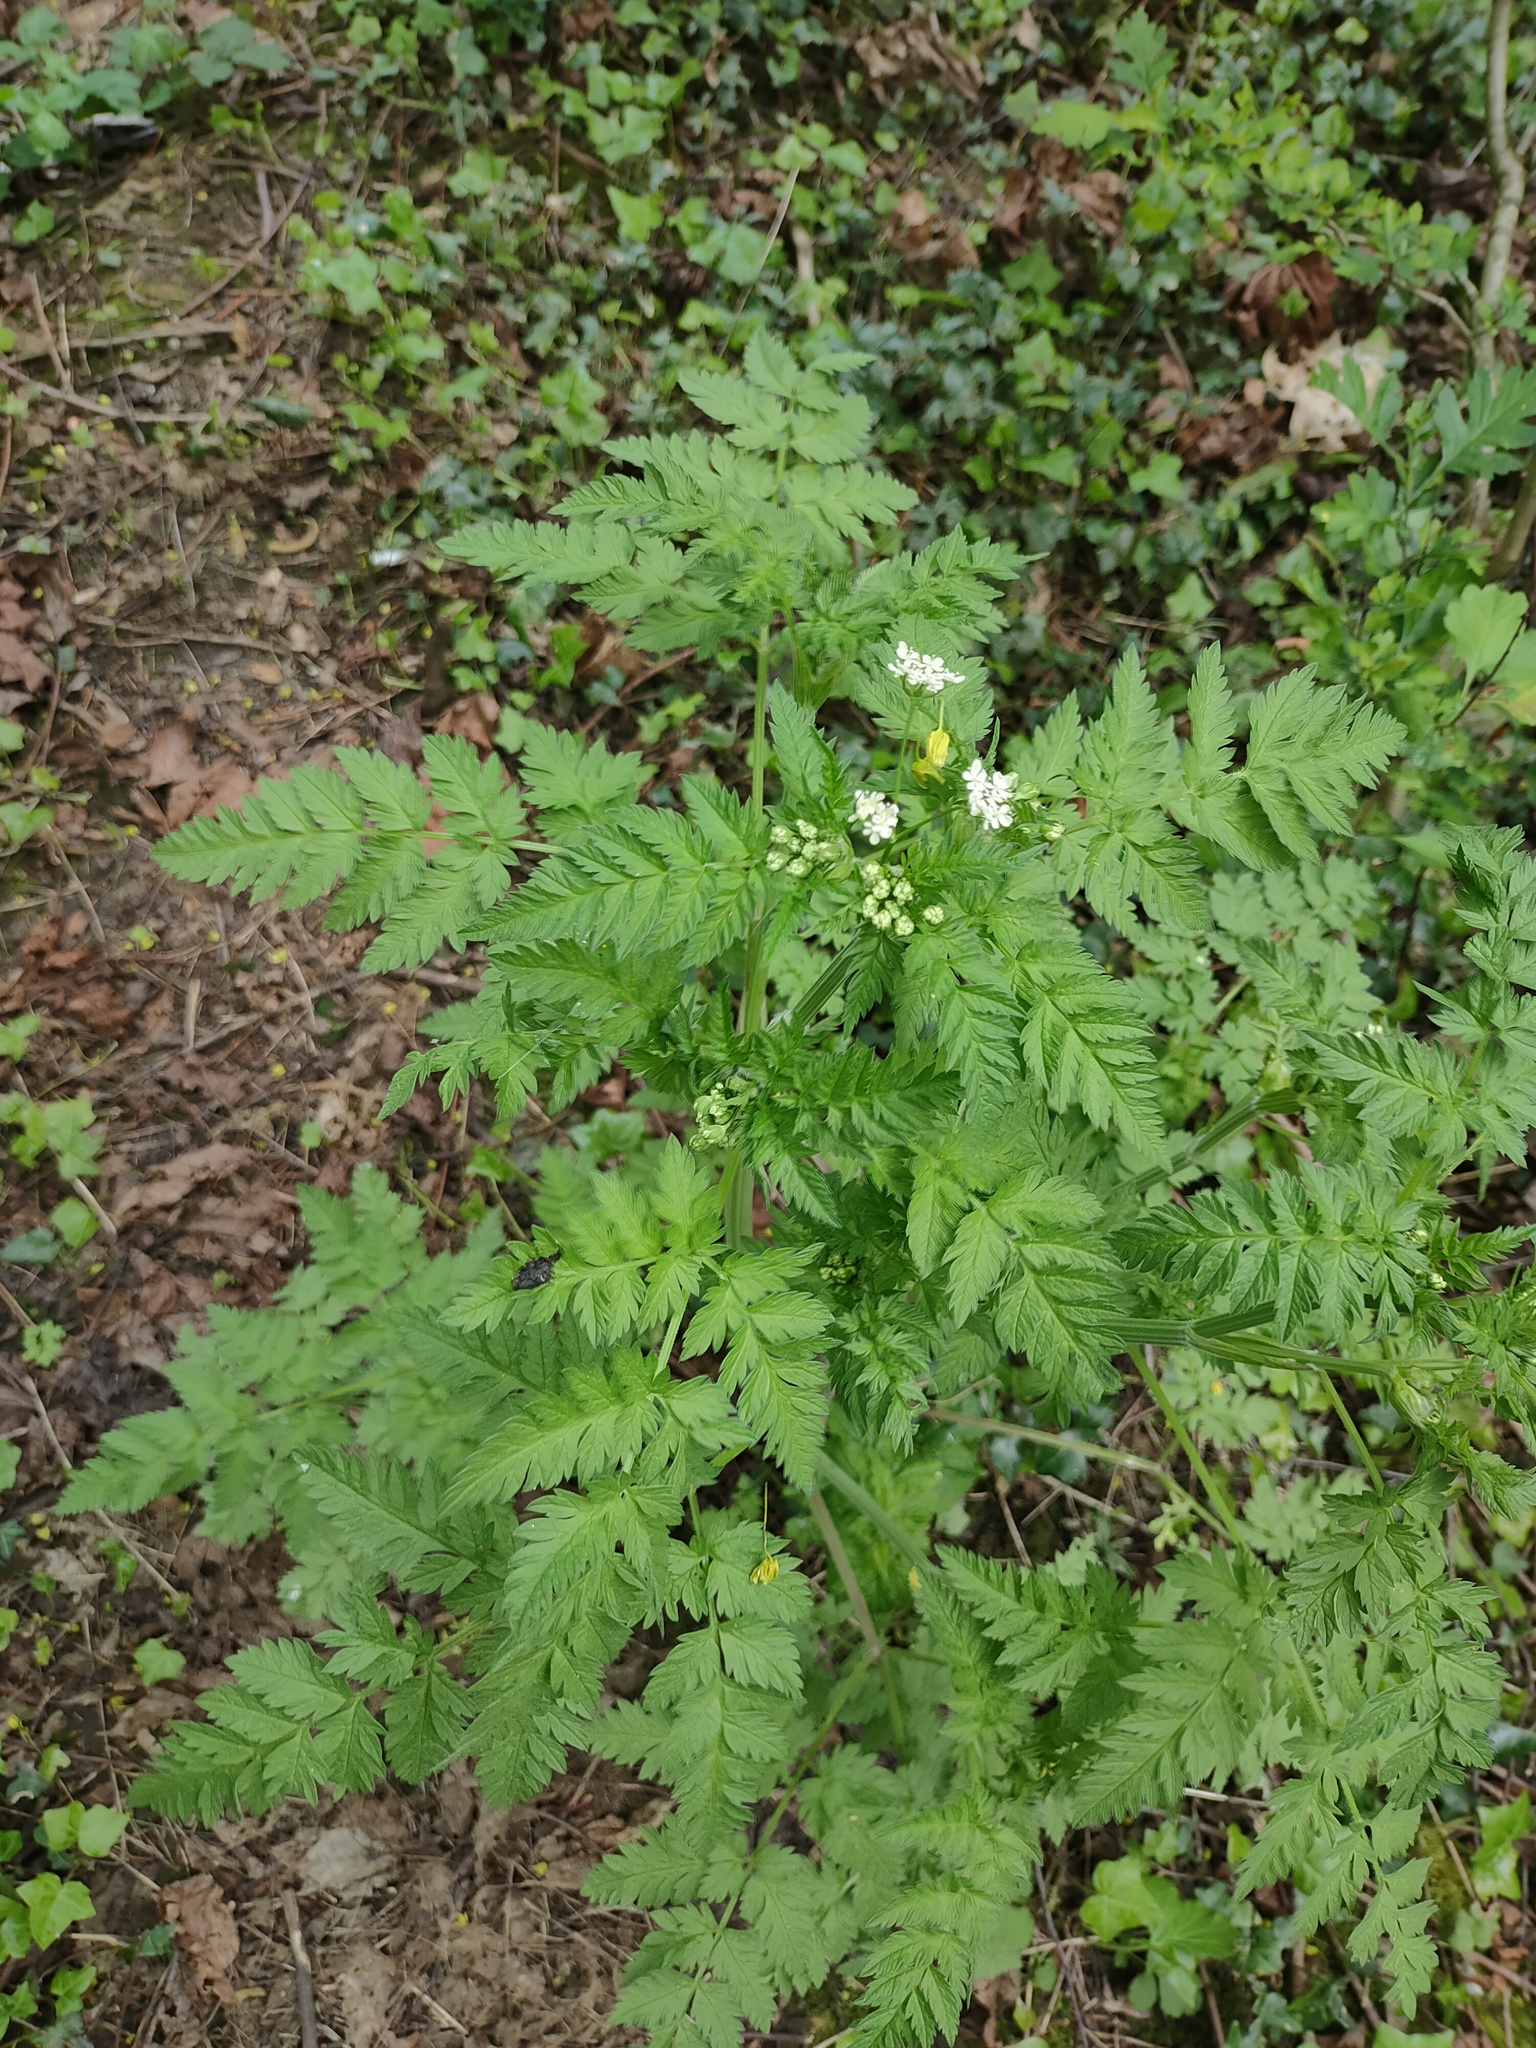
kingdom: Plantae
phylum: Tracheophyta
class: Magnoliopsida
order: Apiales
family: Apiaceae
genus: Anthriscus
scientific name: Anthriscus sylvestris
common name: Cow parsley
